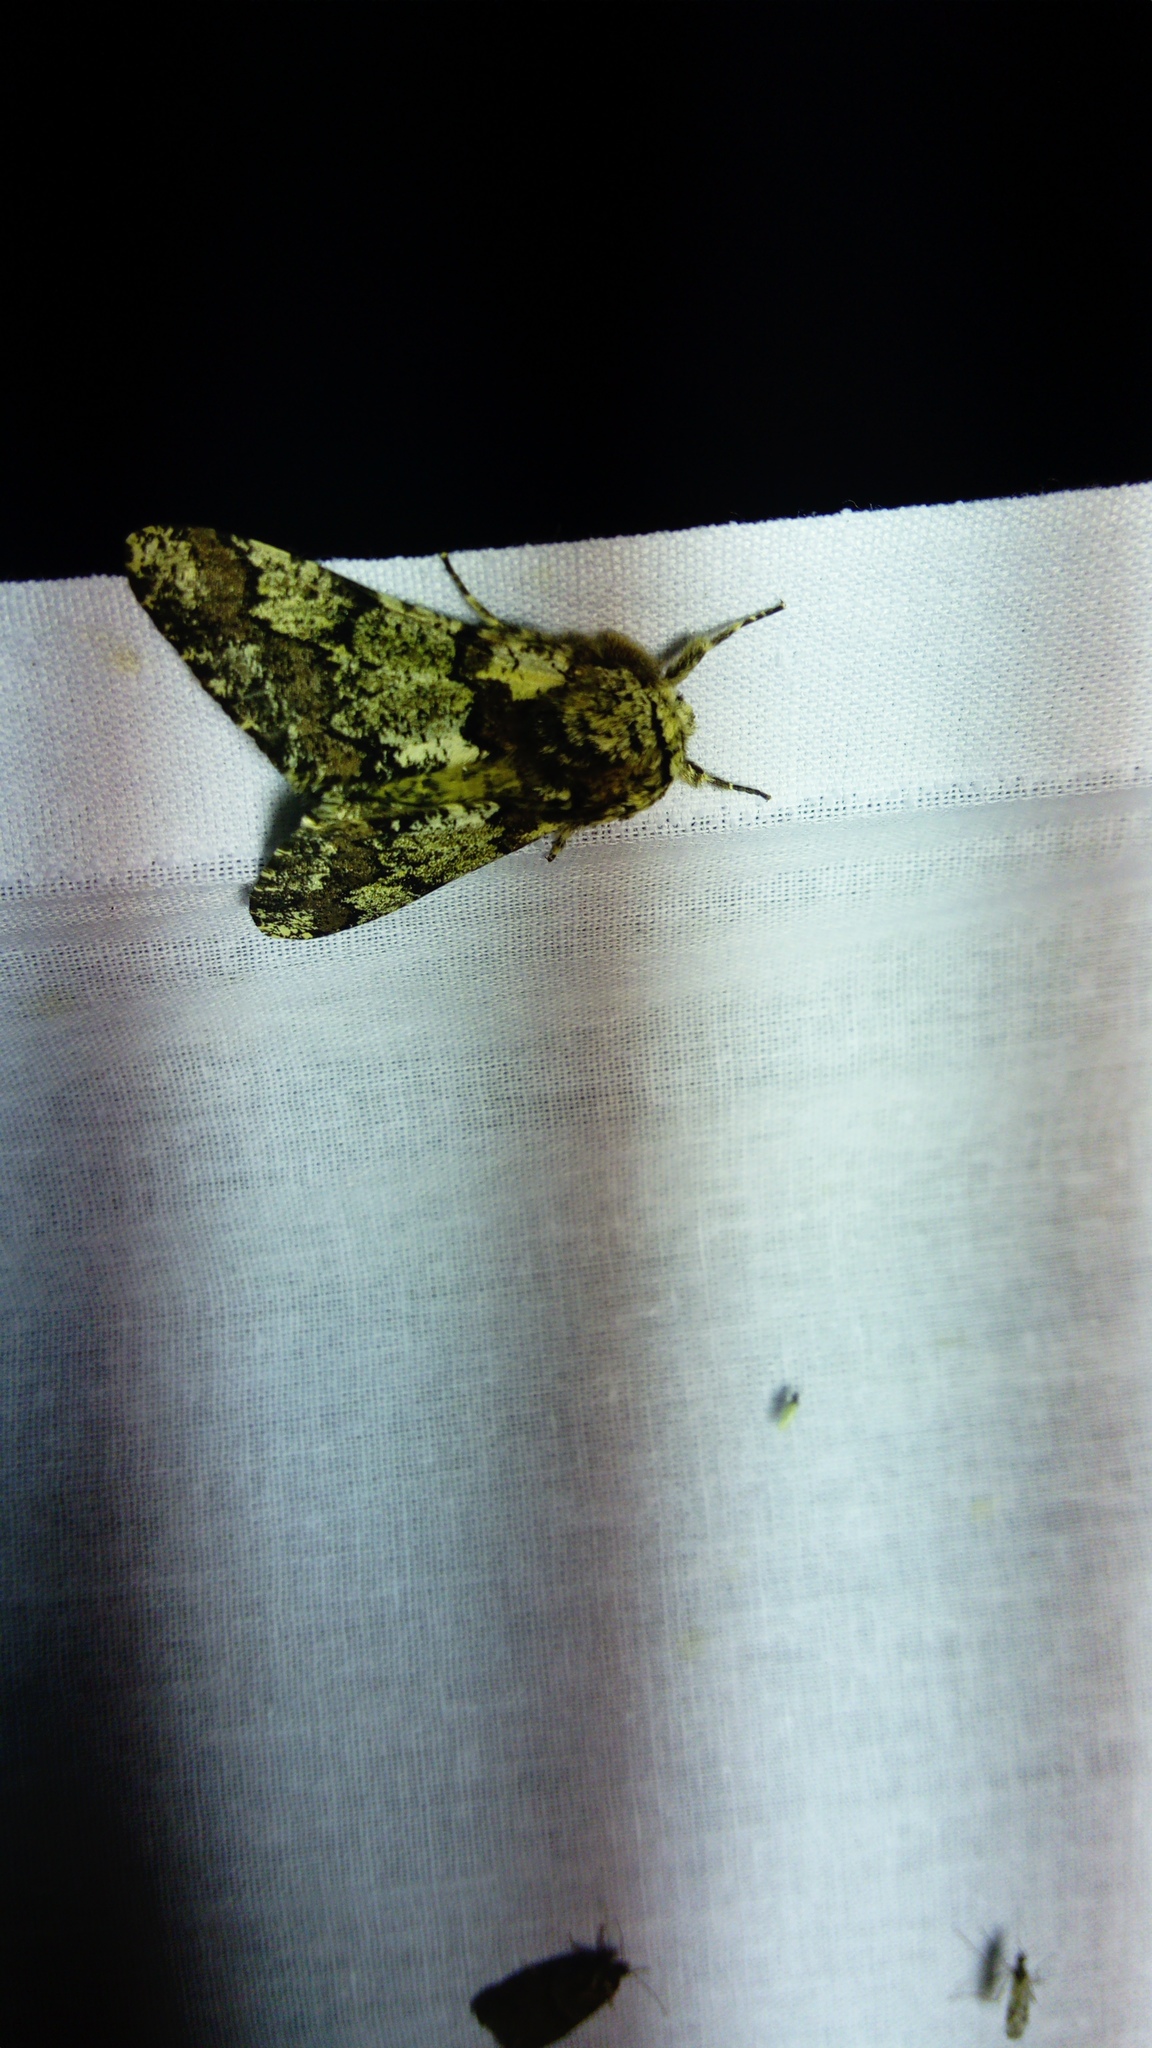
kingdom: Animalia
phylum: Arthropoda
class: Insecta
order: Lepidoptera
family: Geometridae
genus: Biston
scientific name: Biston strataria
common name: Oak beauty
